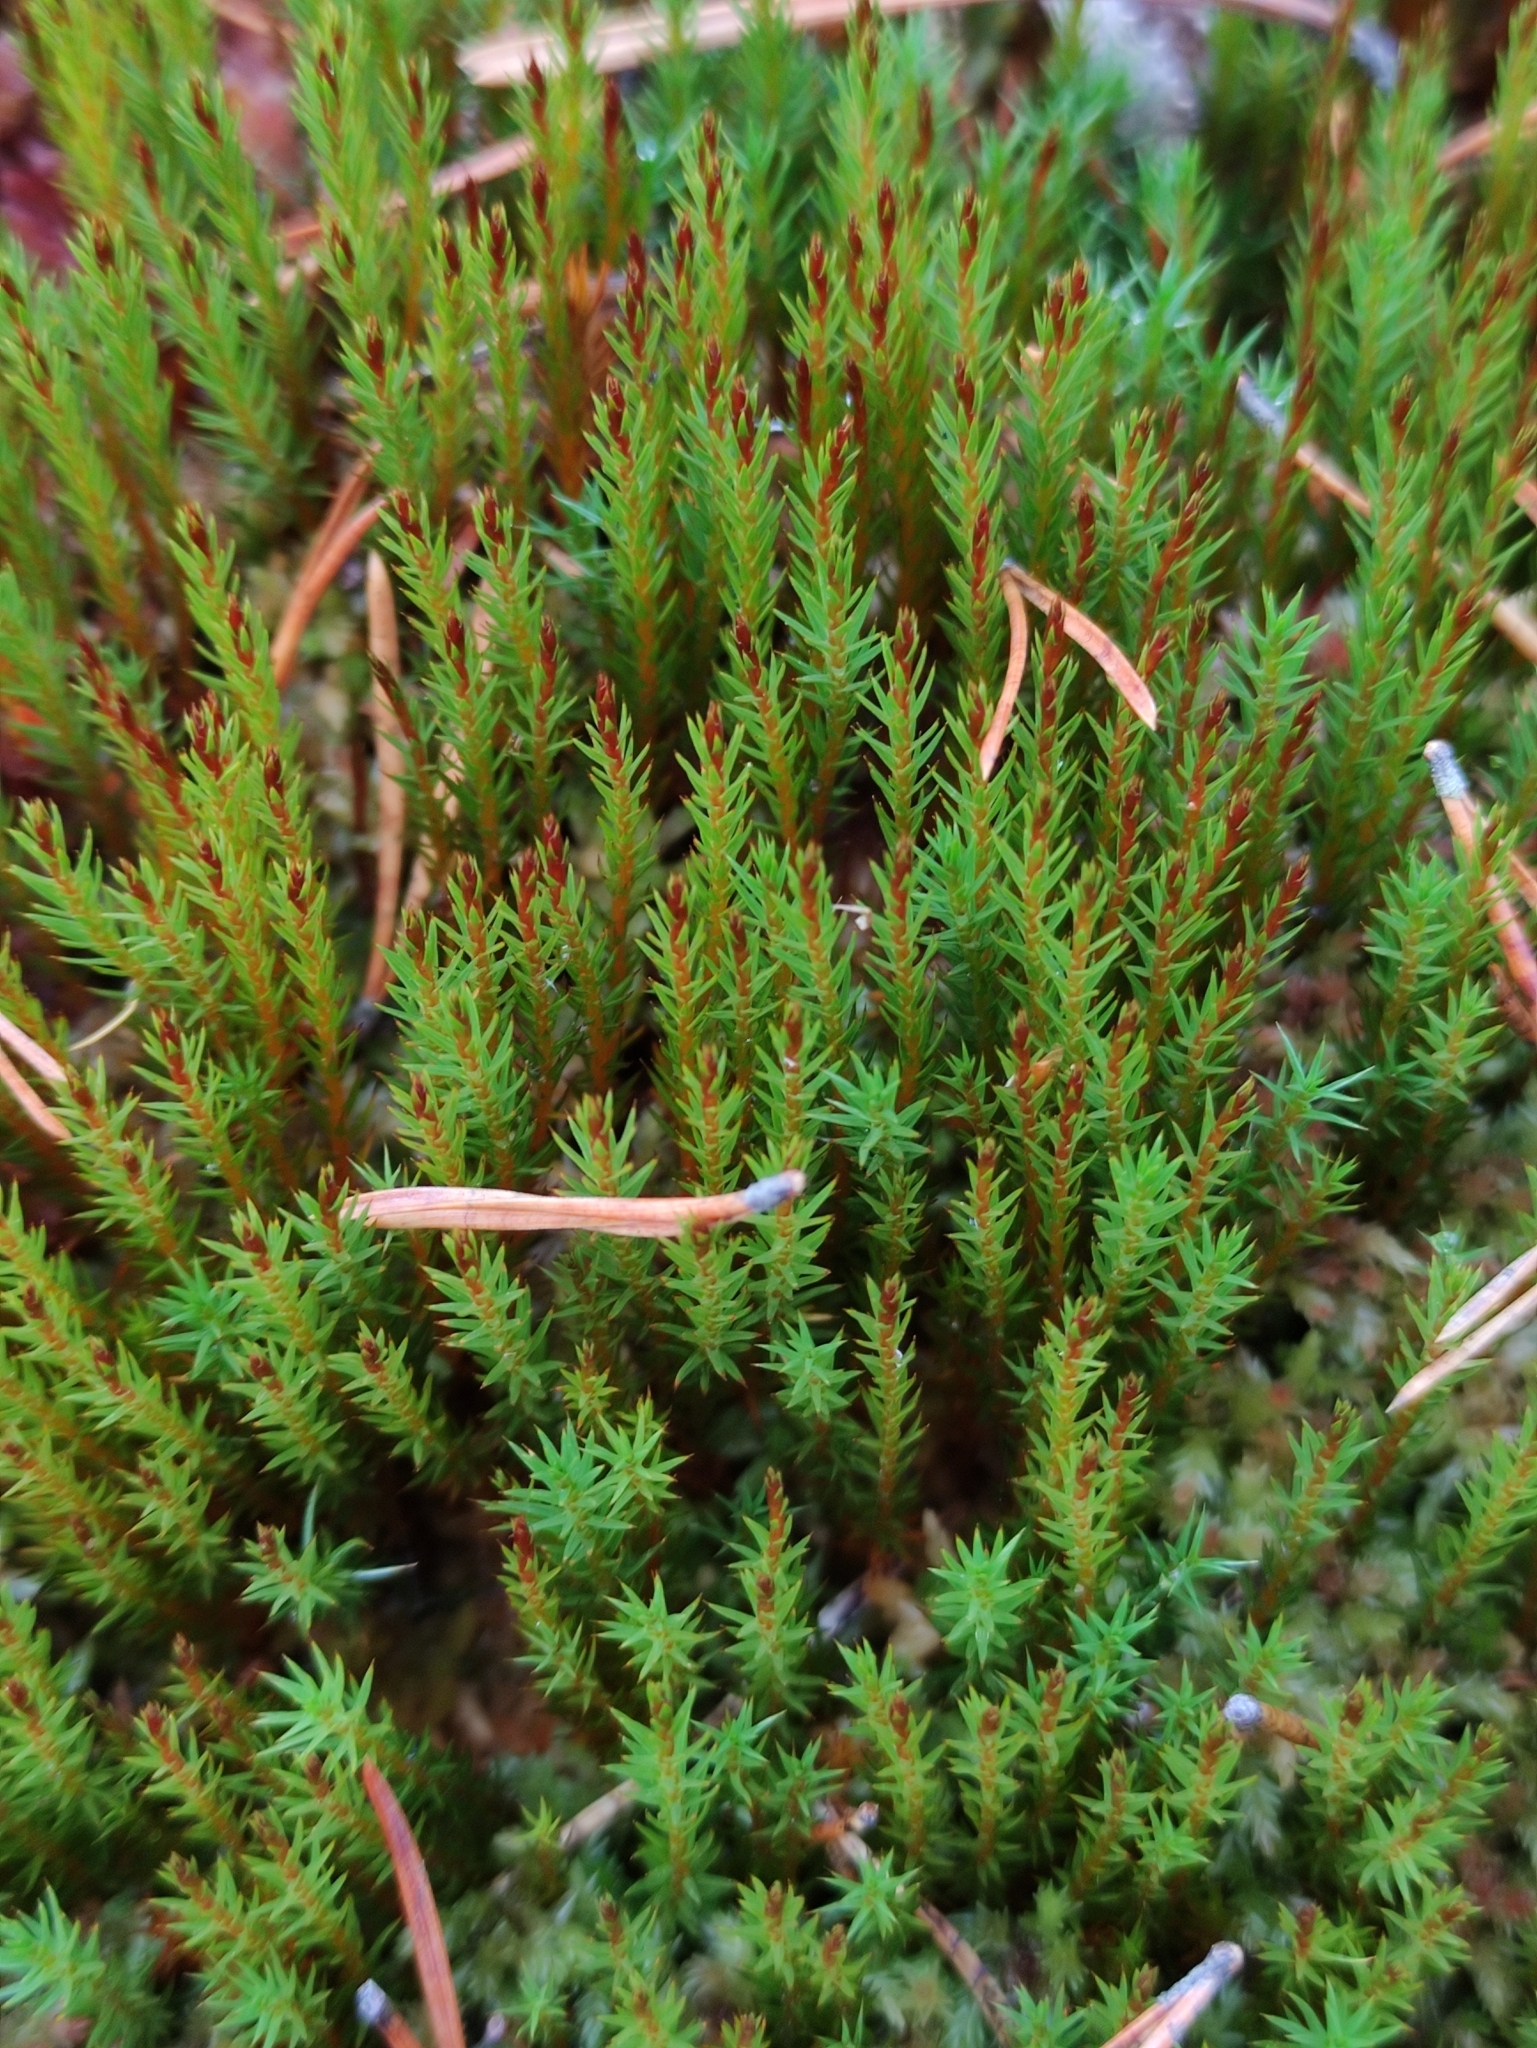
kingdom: Plantae
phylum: Bryophyta
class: Polytrichopsida
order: Polytrichales
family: Polytrichaceae
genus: Polytrichum
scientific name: Polytrichum strictum
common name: Bog haircap moss
